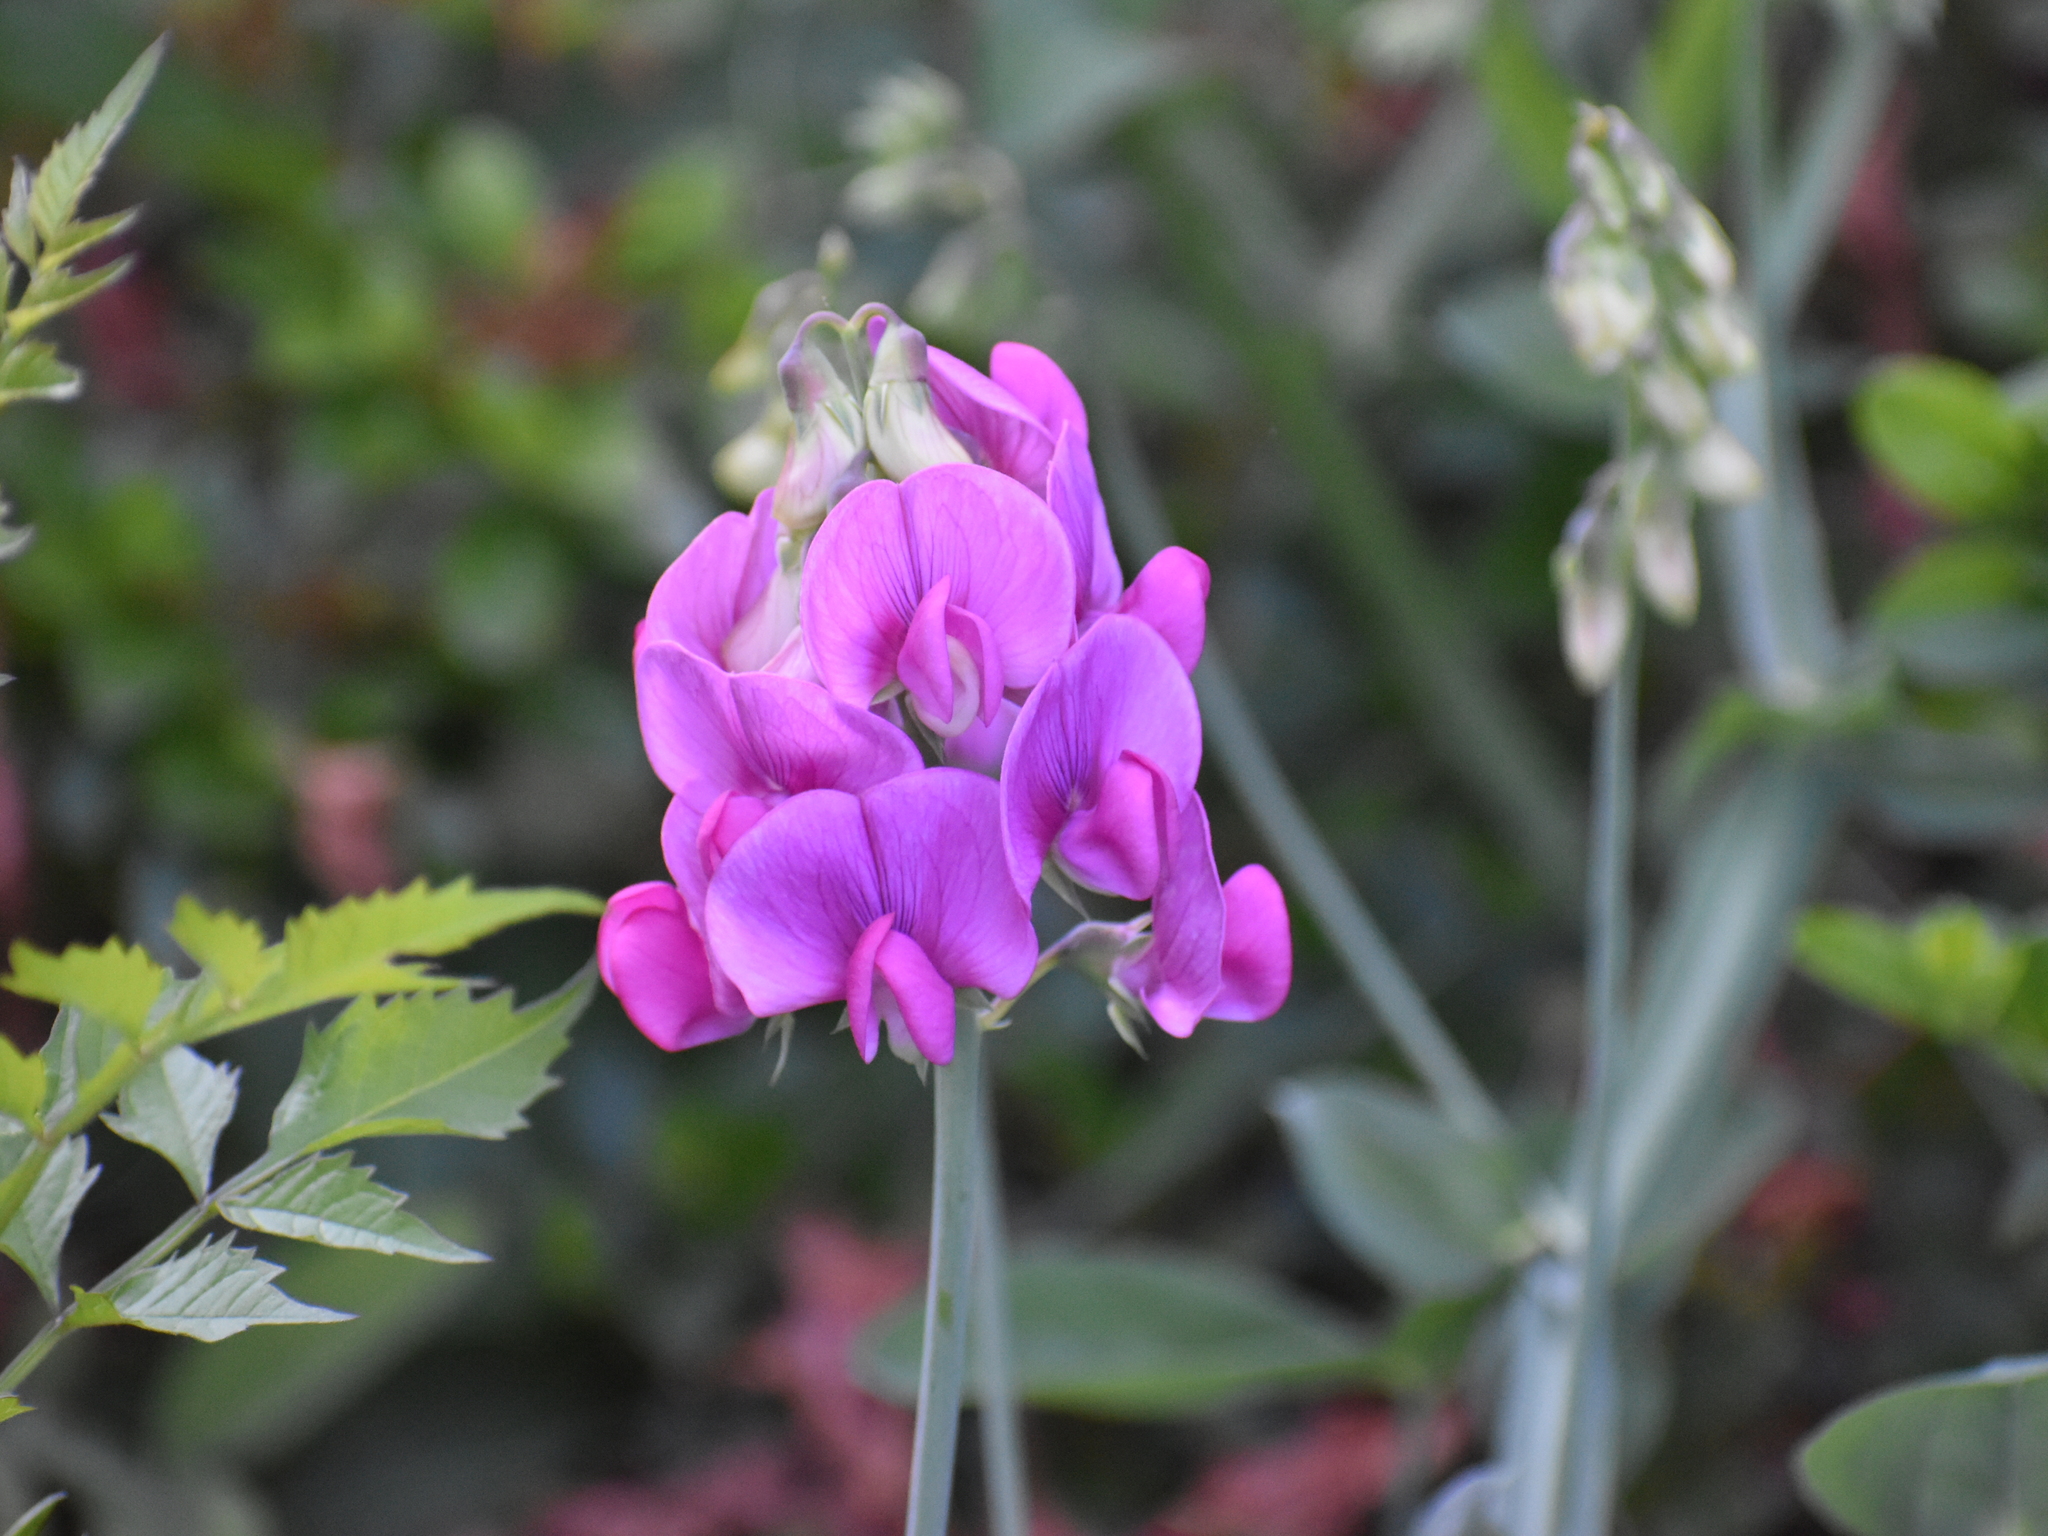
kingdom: Plantae
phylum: Tracheophyta
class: Magnoliopsida
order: Fabales
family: Fabaceae
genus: Lathyrus
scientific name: Lathyrus latifolius
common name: Perennial pea
